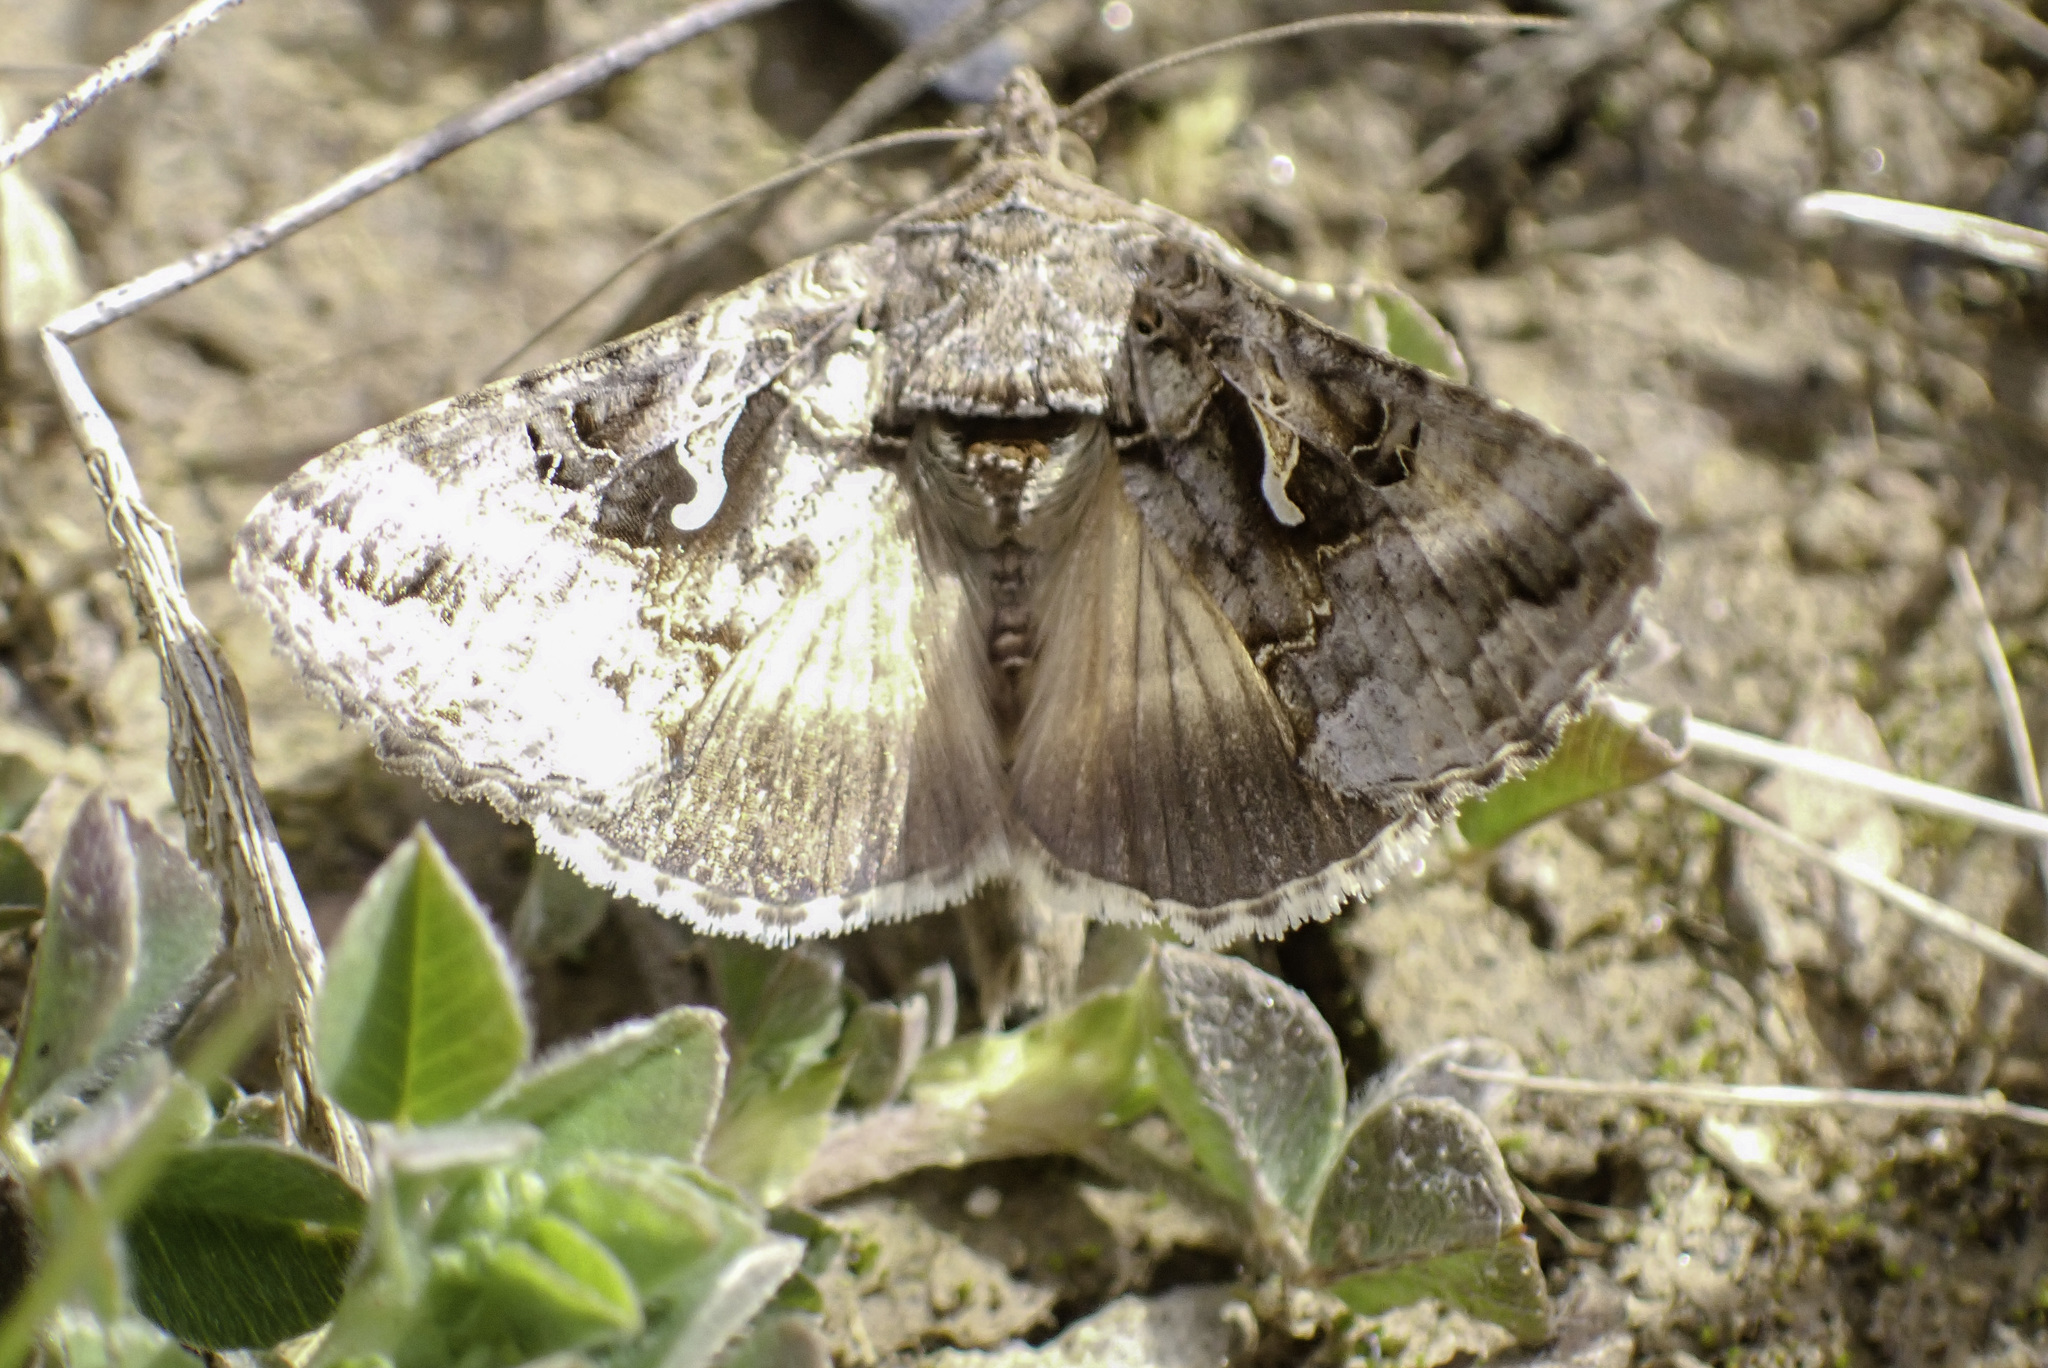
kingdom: Animalia
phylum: Arthropoda
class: Insecta
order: Lepidoptera
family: Noctuidae
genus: Autographa
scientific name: Autographa gamma
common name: Silver y
